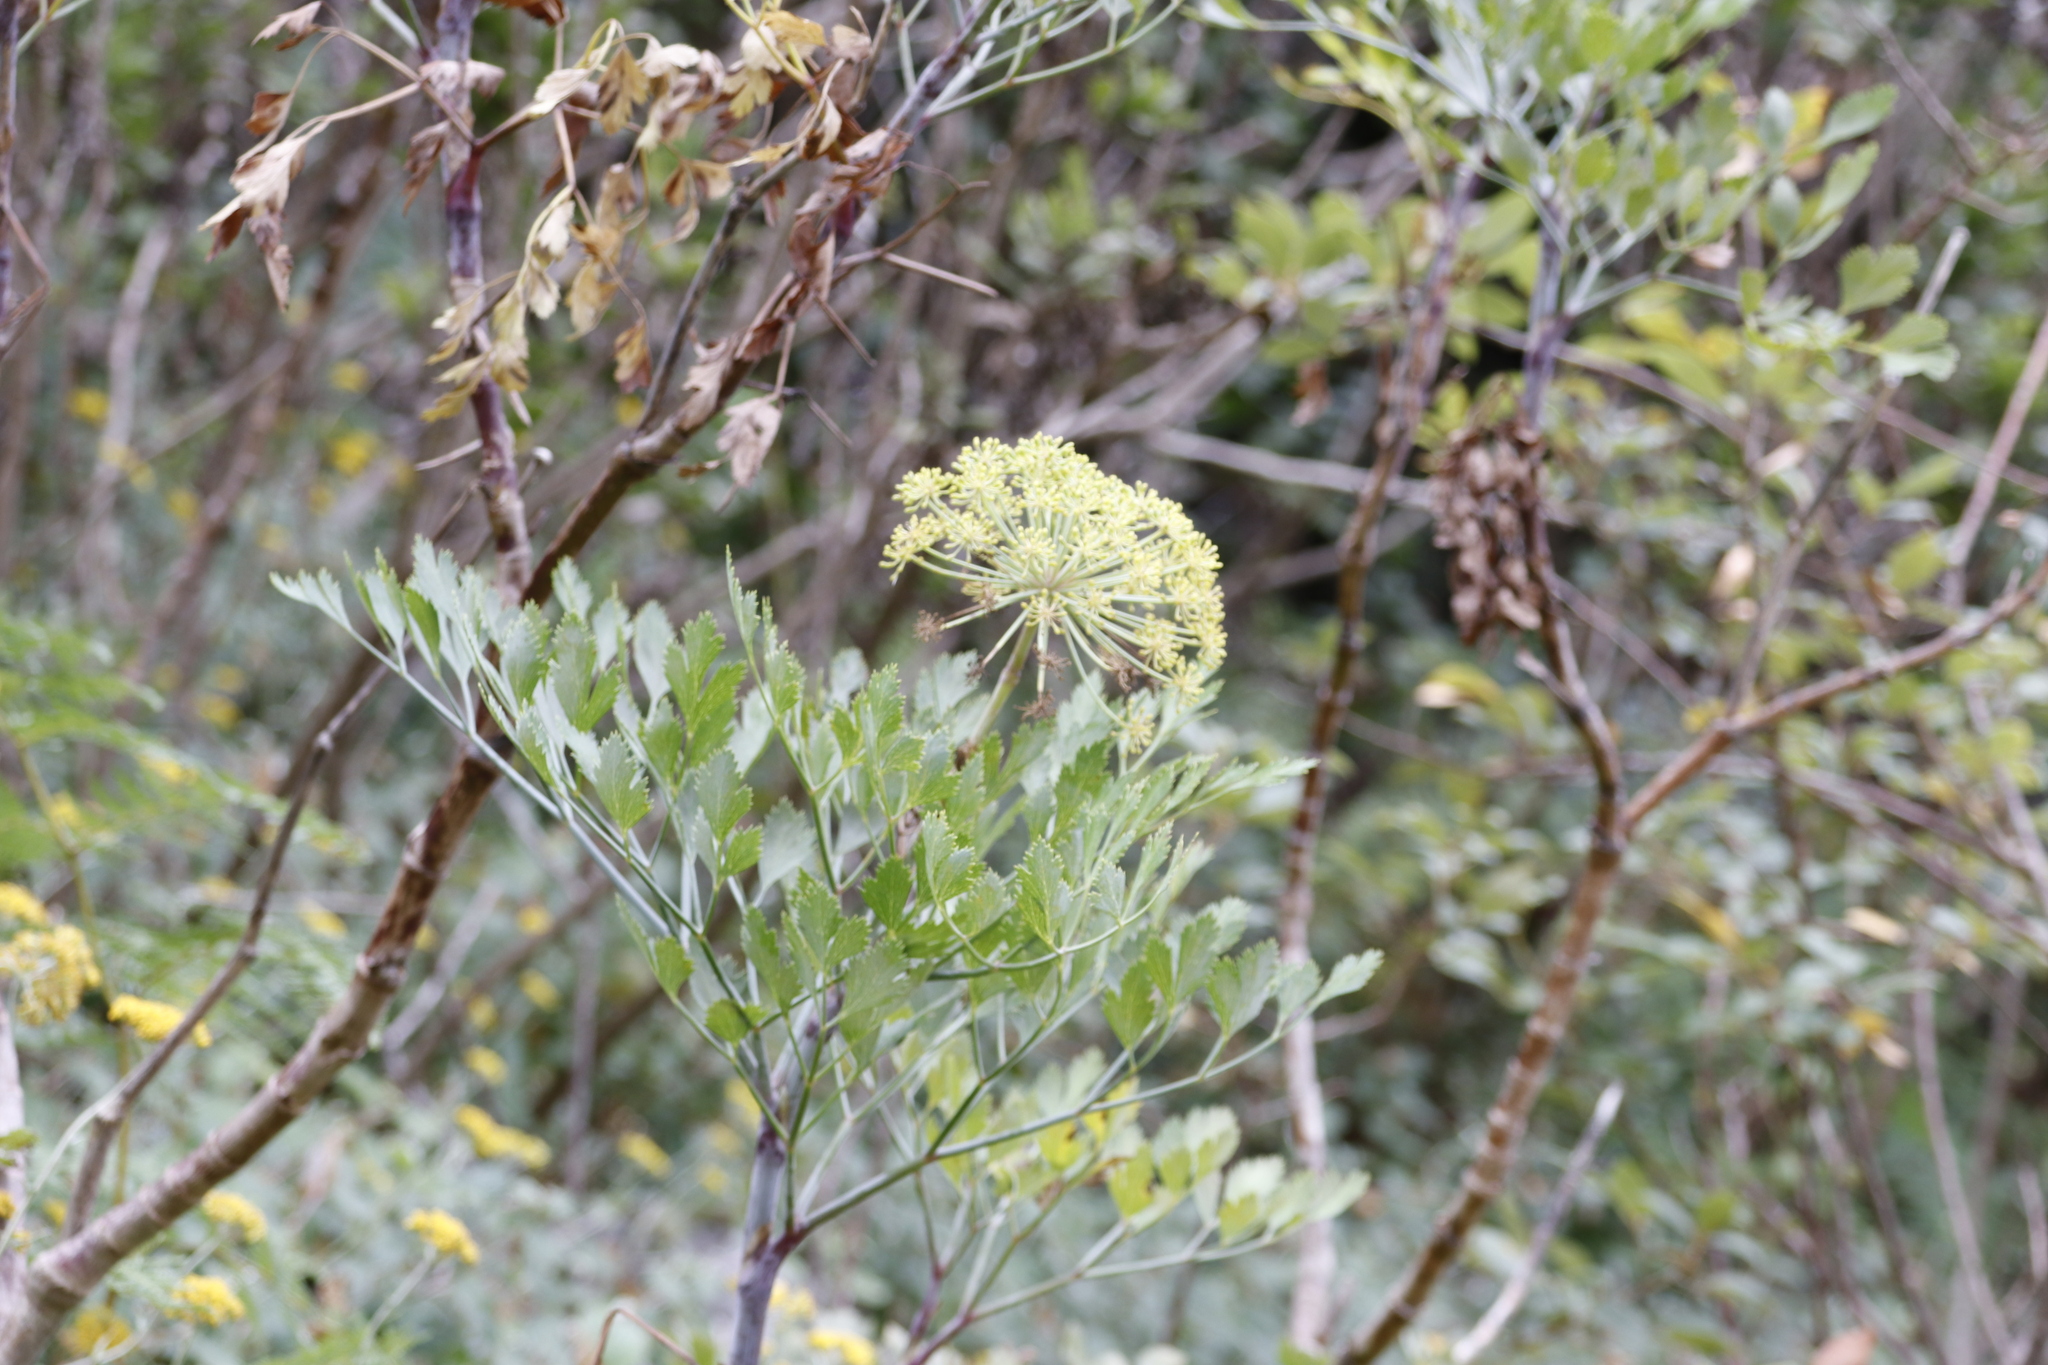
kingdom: Plantae
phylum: Tracheophyta
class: Magnoliopsida
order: Apiales
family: Apiaceae
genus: Notobubon
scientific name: Notobubon galbanum
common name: Blisterbush
